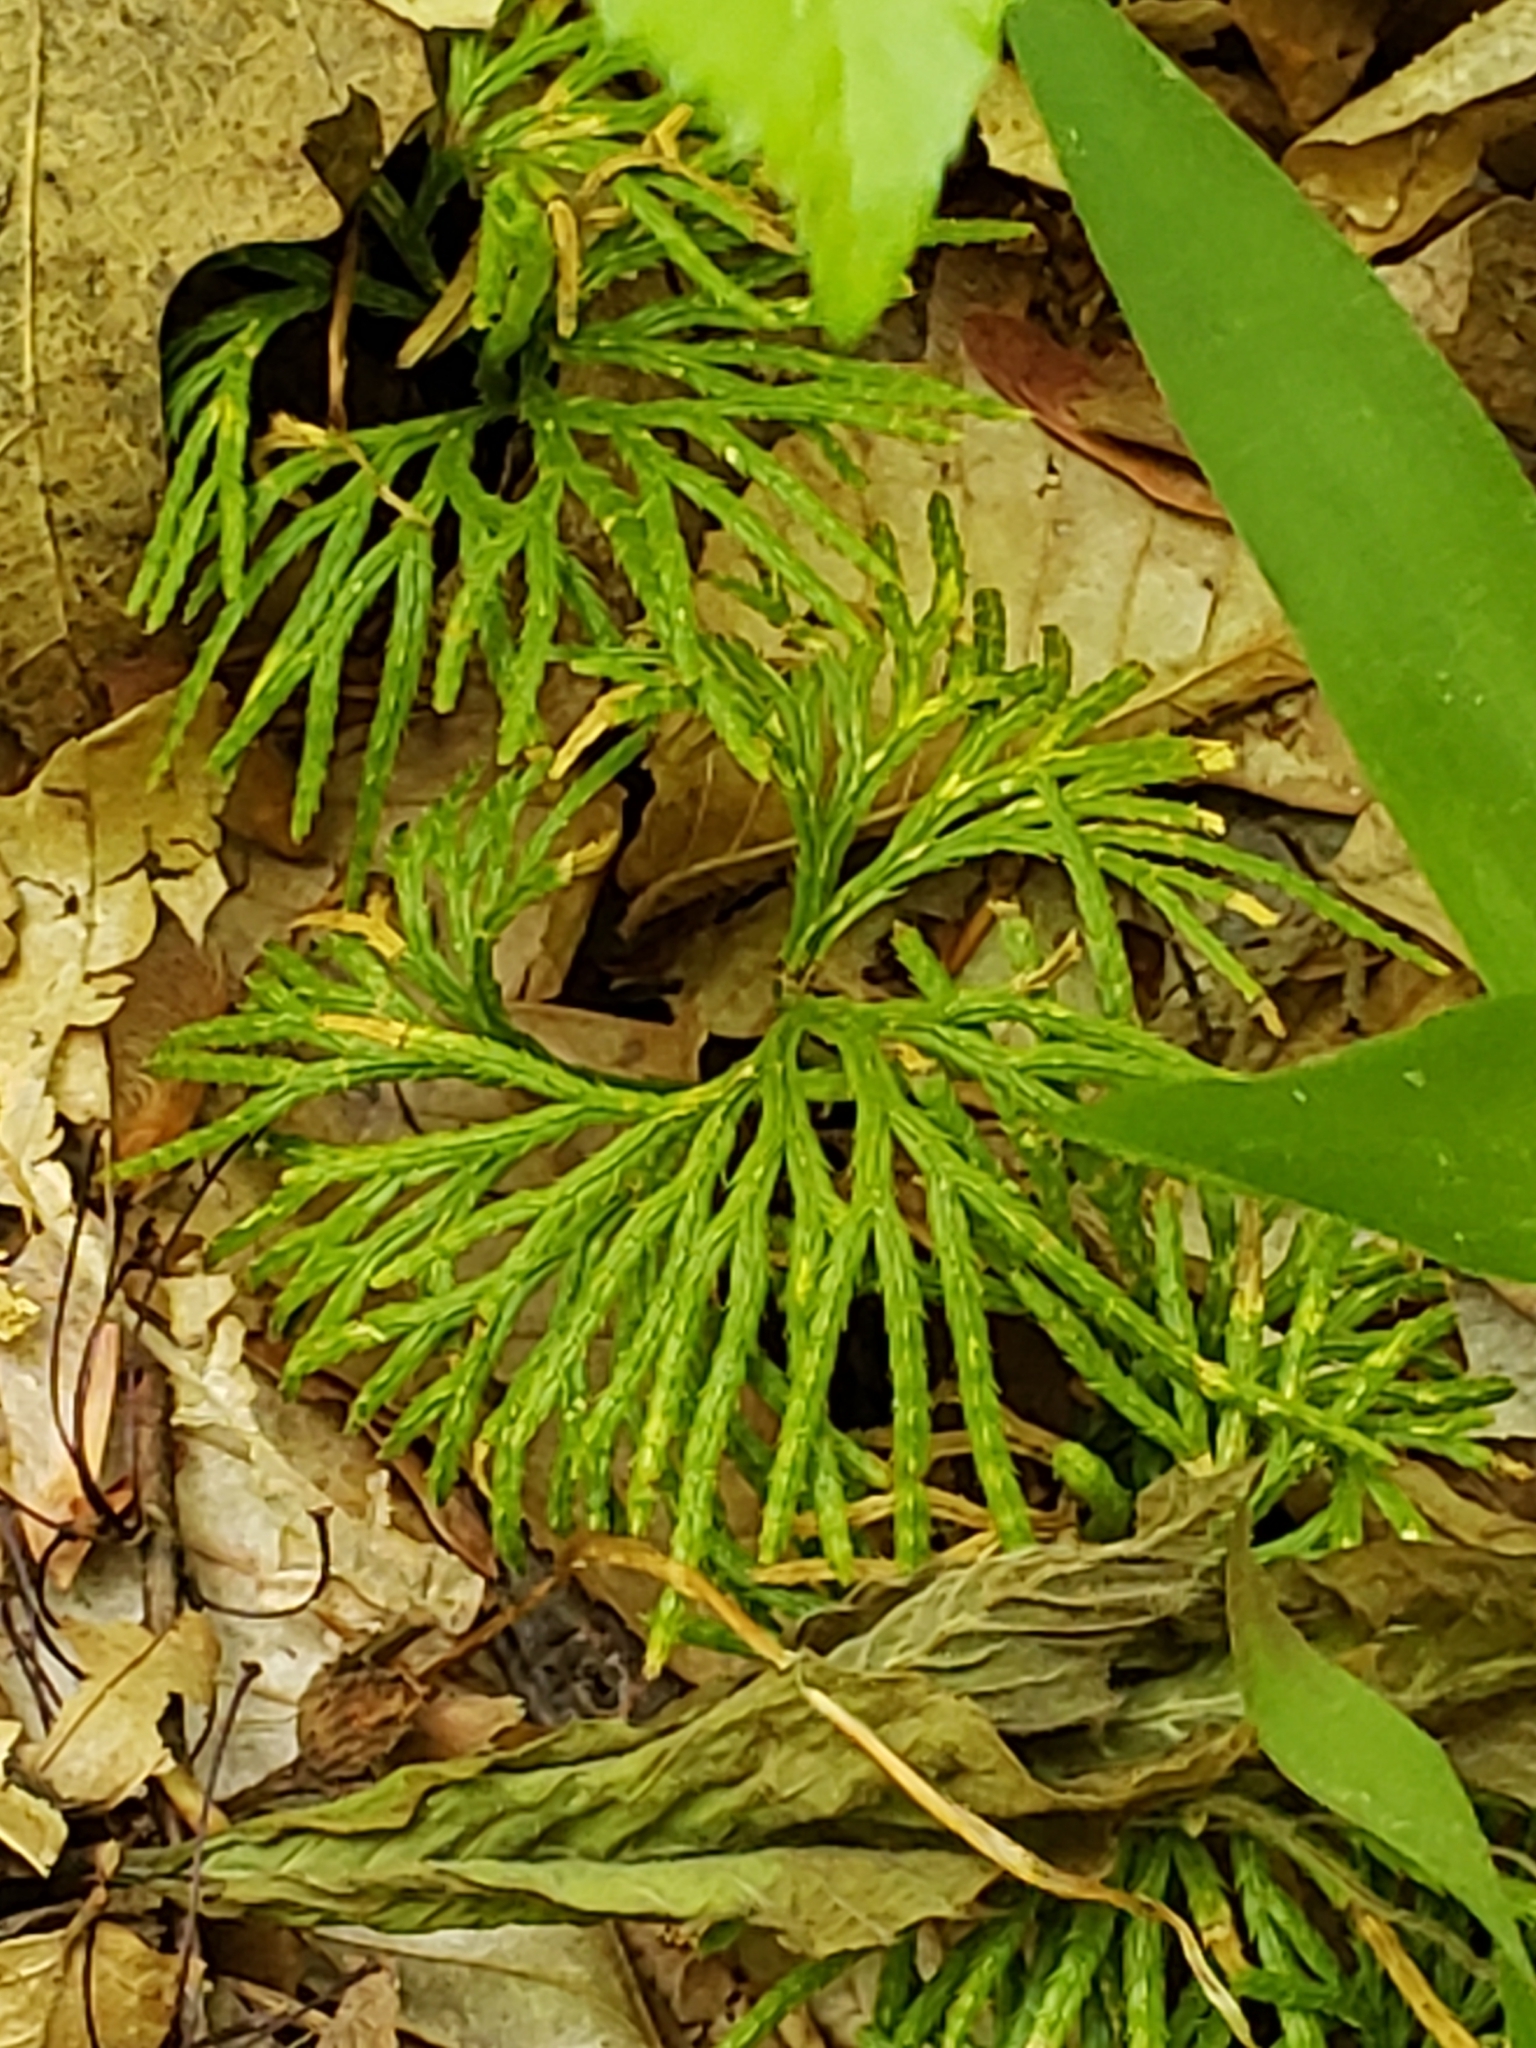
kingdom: Plantae
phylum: Tracheophyta
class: Lycopodiopsida
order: Lycopodiales
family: Lycopodiaceae
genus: Diphasiastrum
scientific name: Diphasiastrum digitatum
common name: Southern running-pine
